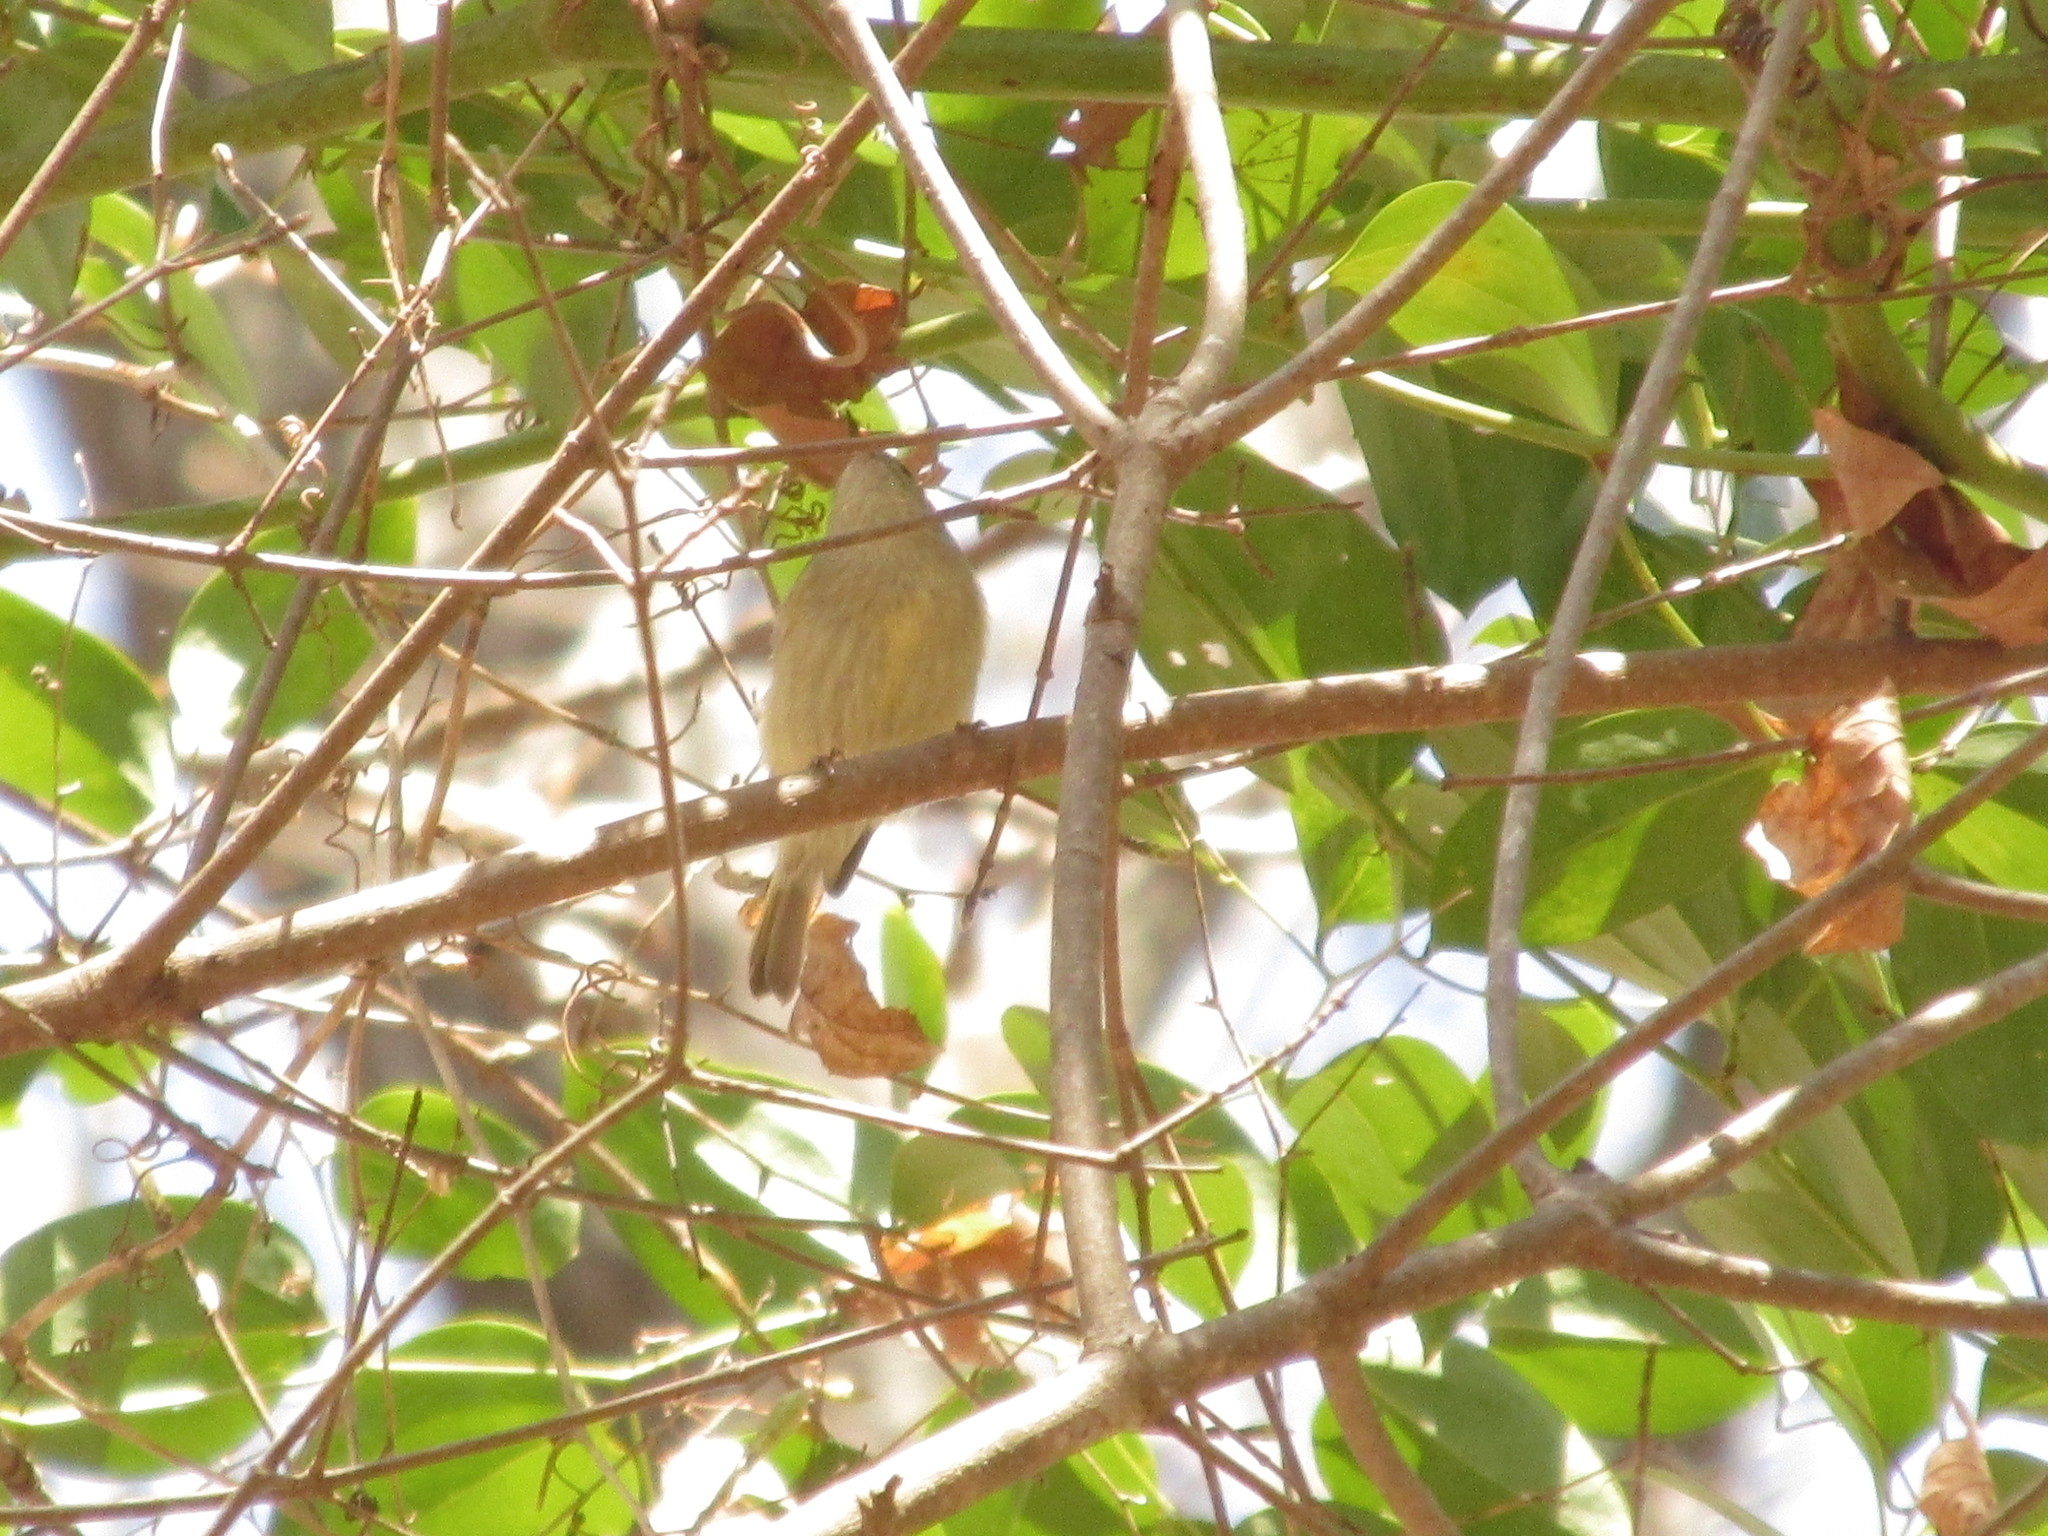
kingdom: Animalia
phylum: Chordata
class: Aves
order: Passeriformes
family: Parulidae
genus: Leiothlypis
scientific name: Leiothlypis celata
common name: Orange-crowned warbler
